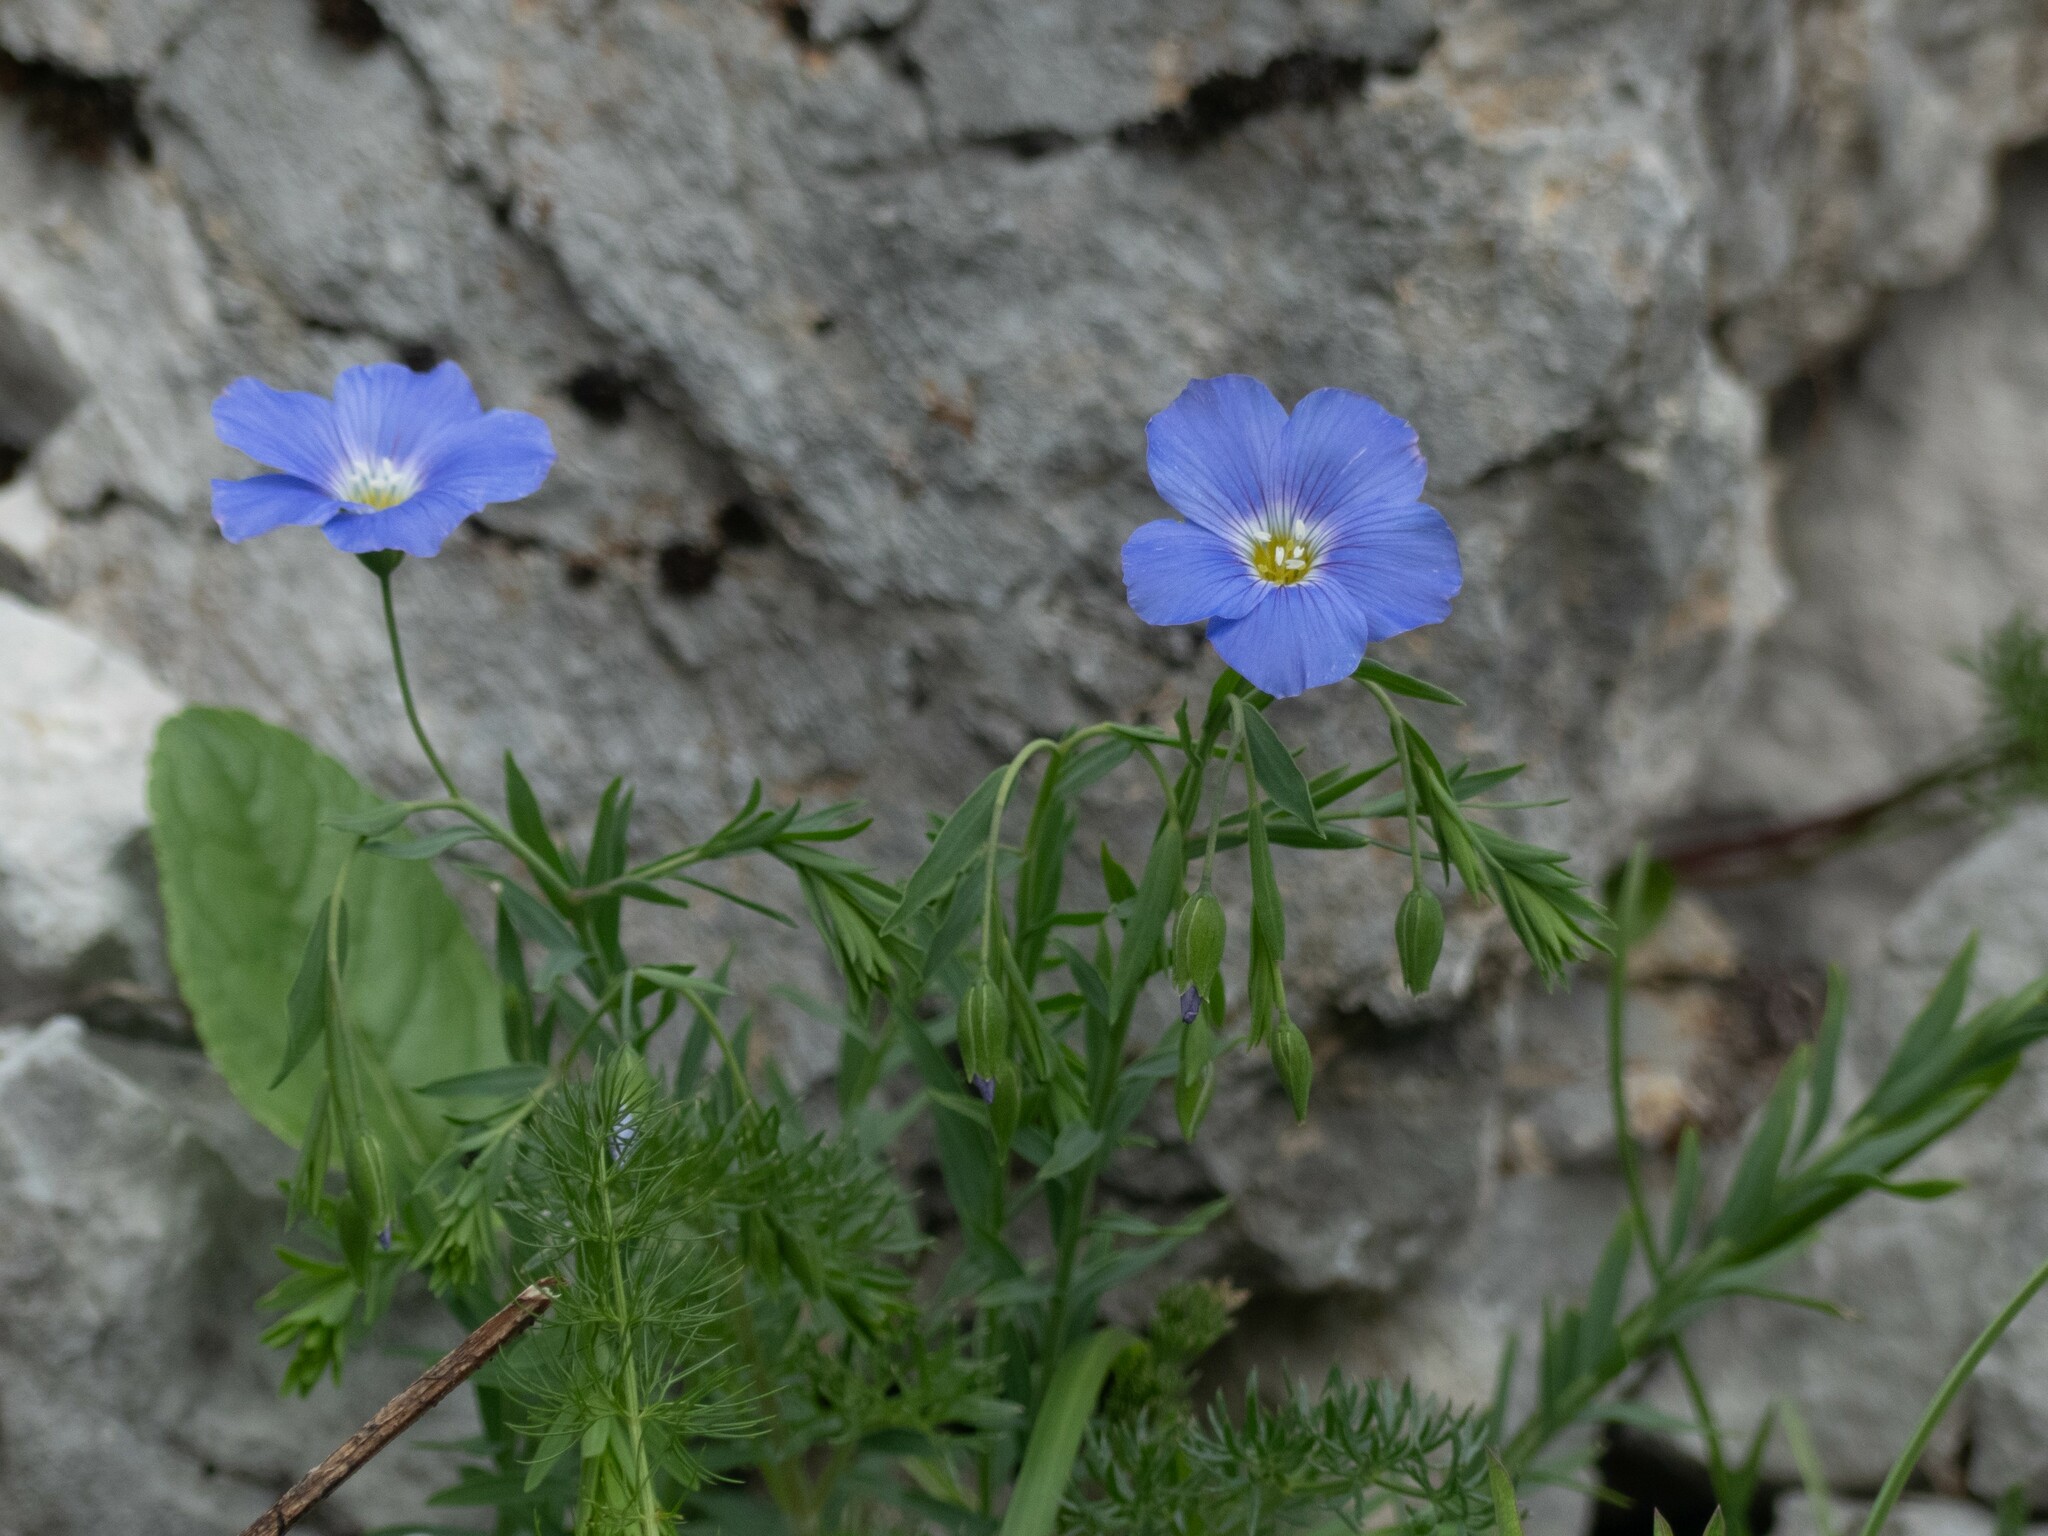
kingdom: Plantae
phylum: Tracheophyta
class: Magnoliopsida
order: Malpighiales
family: Linaceae
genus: Linum
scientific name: Linum alpinum
